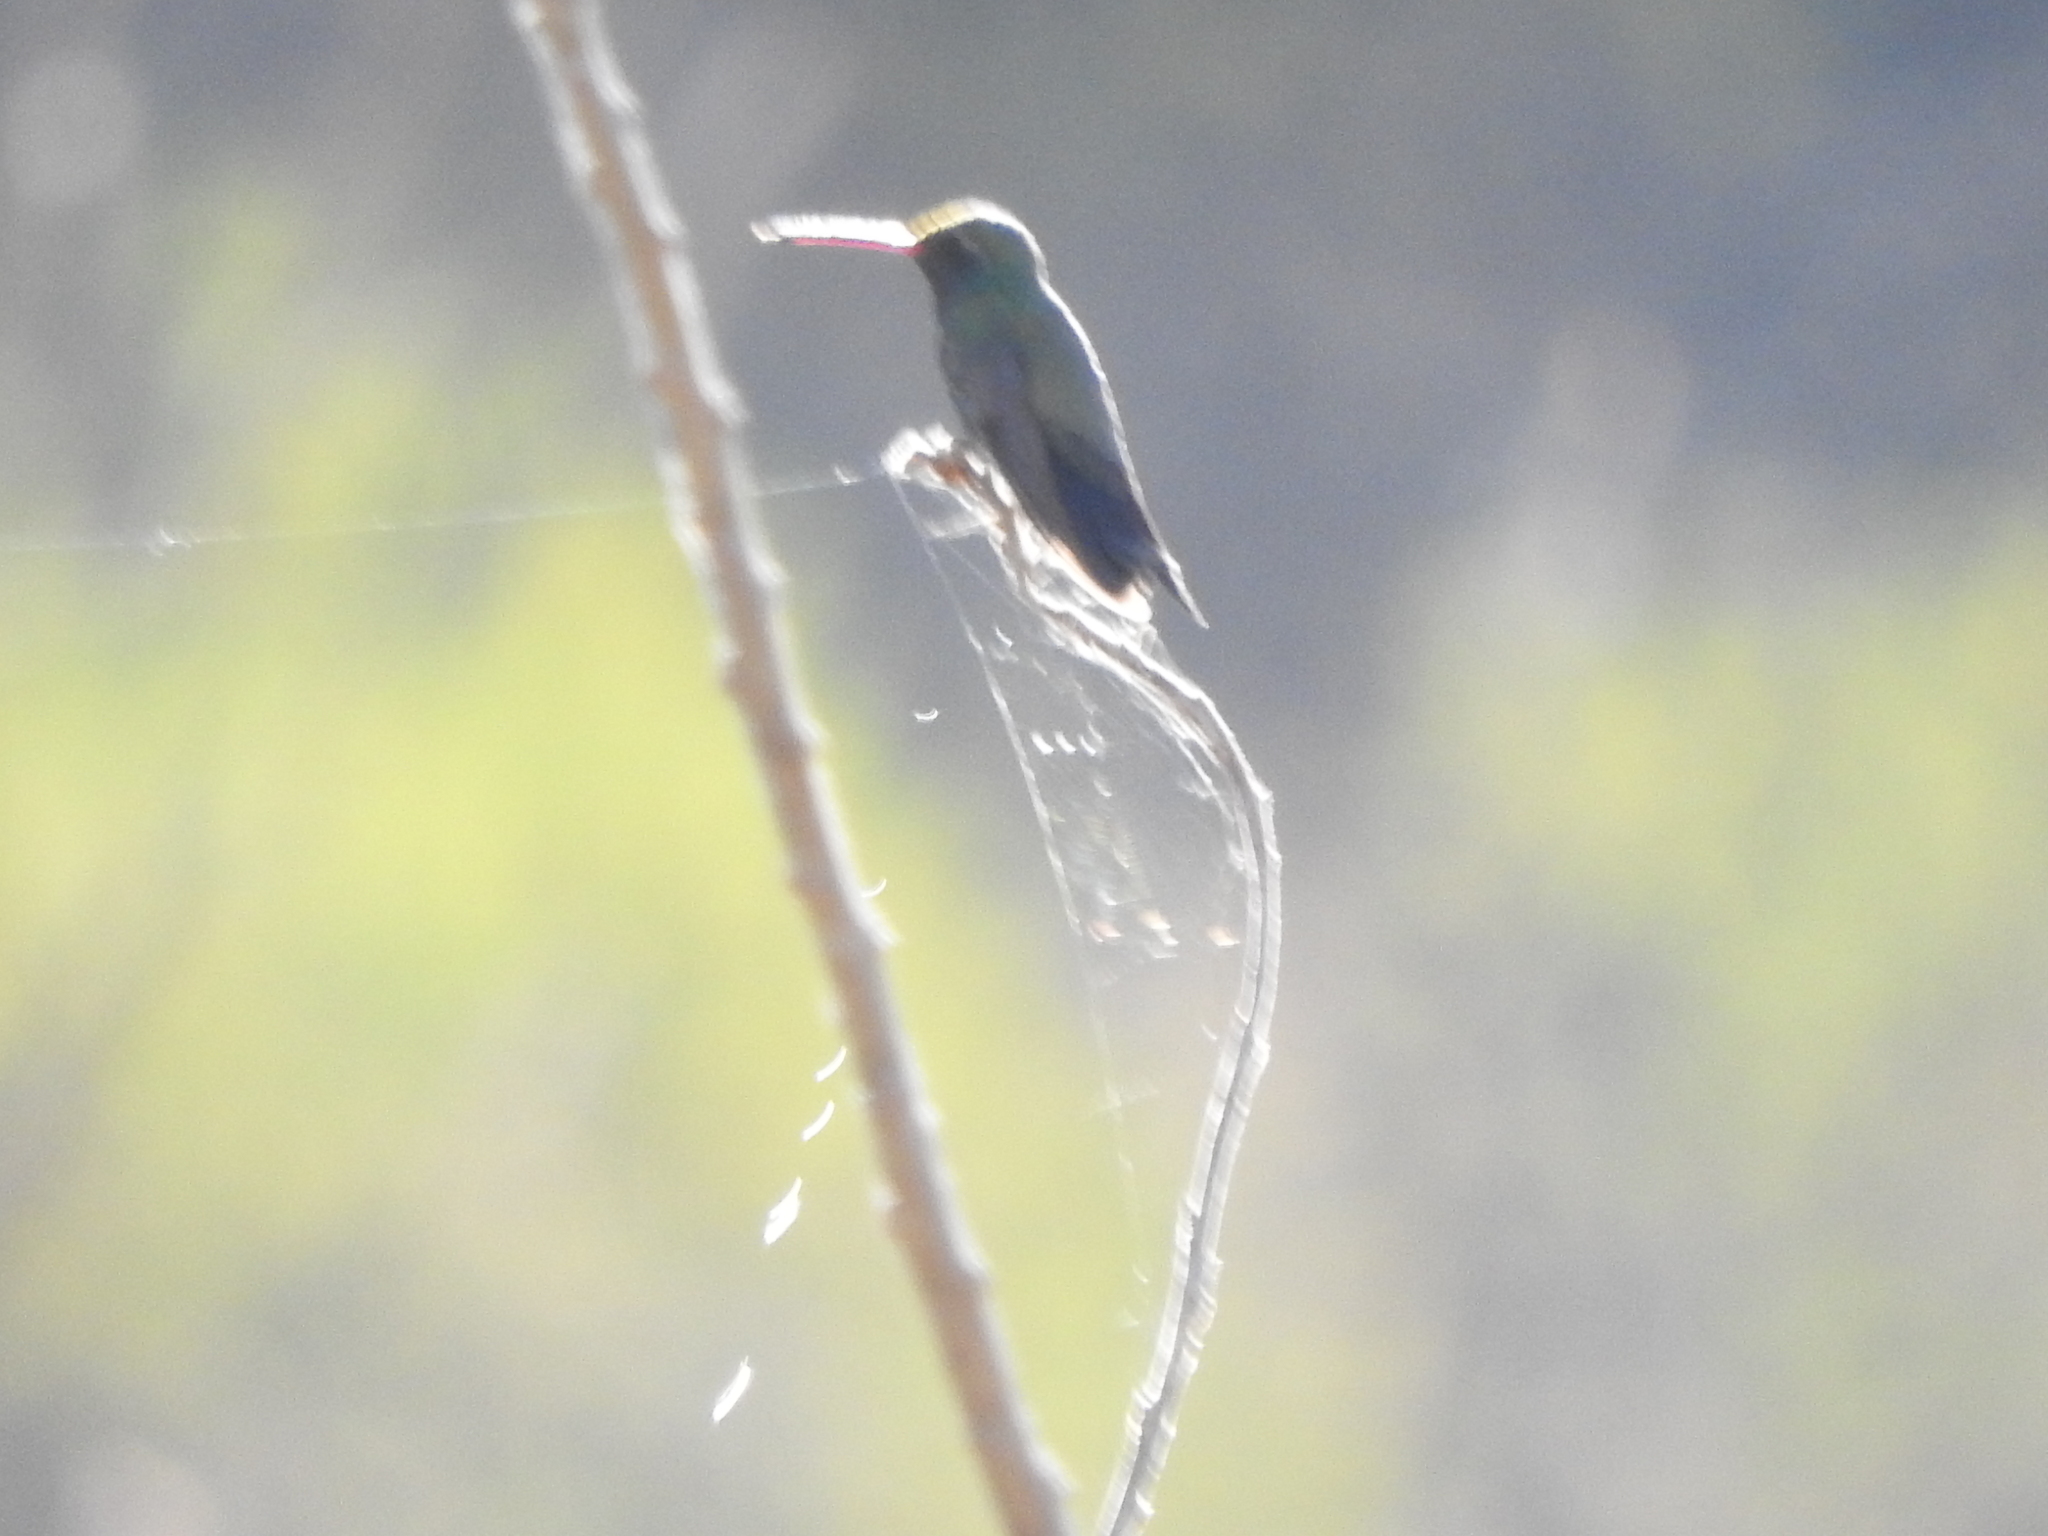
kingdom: Animalia
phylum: Chordata
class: Aves
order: Apodiformes
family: Trochilidae
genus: Cynanthus
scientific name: Cynanthus latirostris
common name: Broad-billed hummingbird
